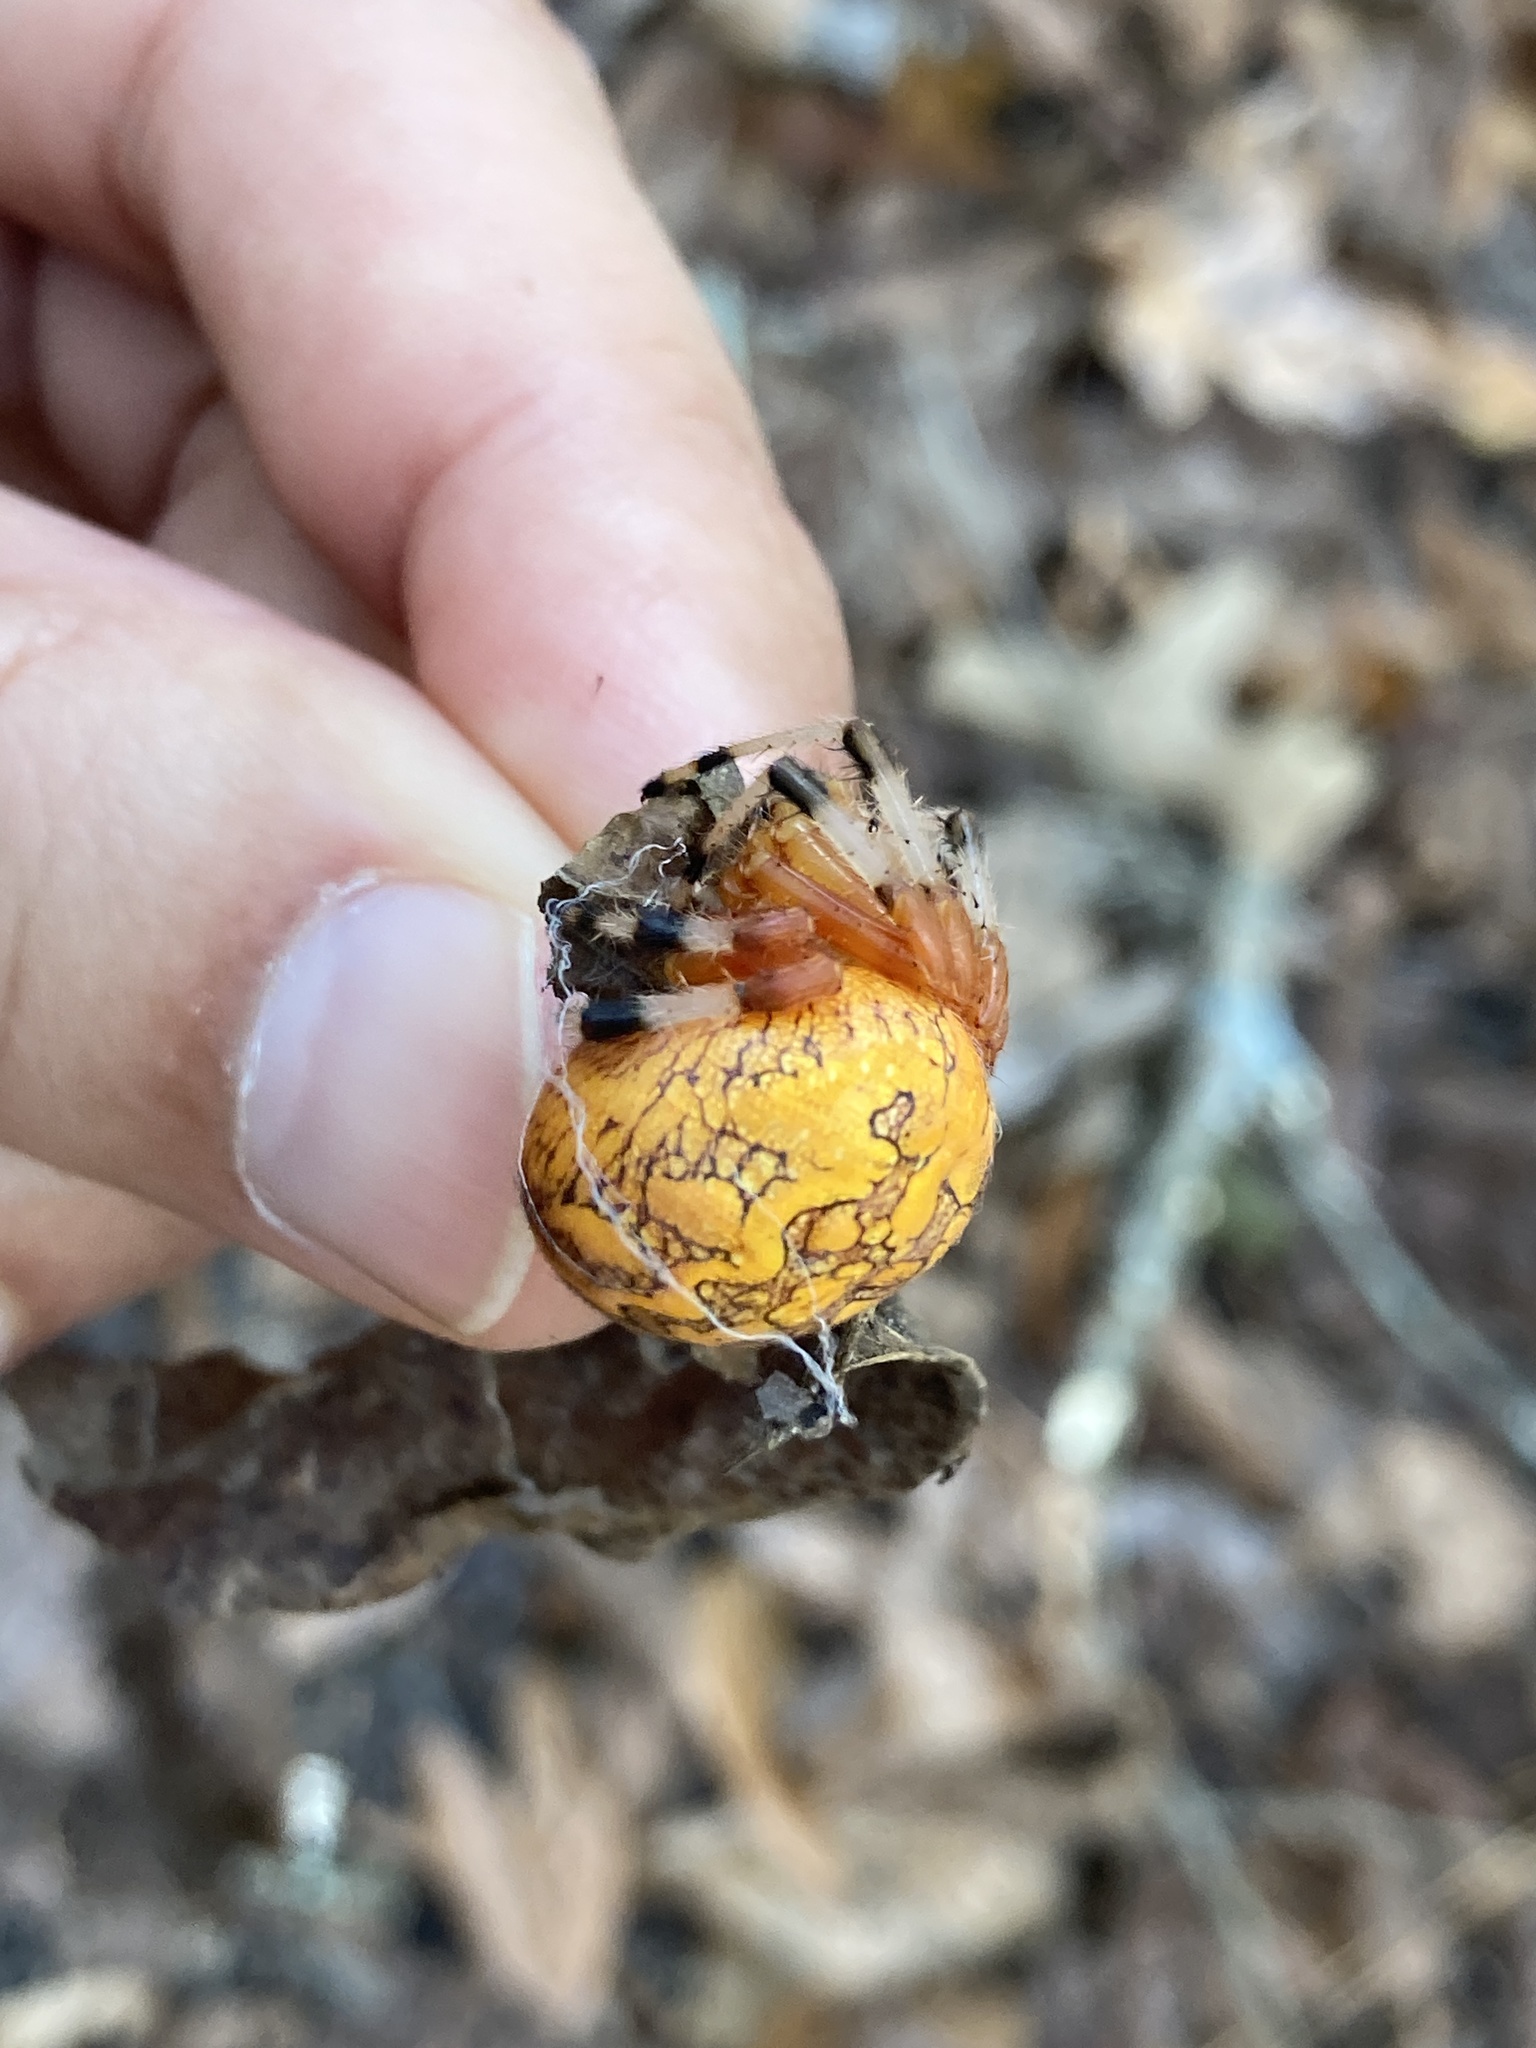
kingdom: Animalia
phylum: Arthropoda
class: Arachnida
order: Araneae
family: Araneidae
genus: Araneus
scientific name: Araneus marmoreus
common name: Marbled orbweaver
